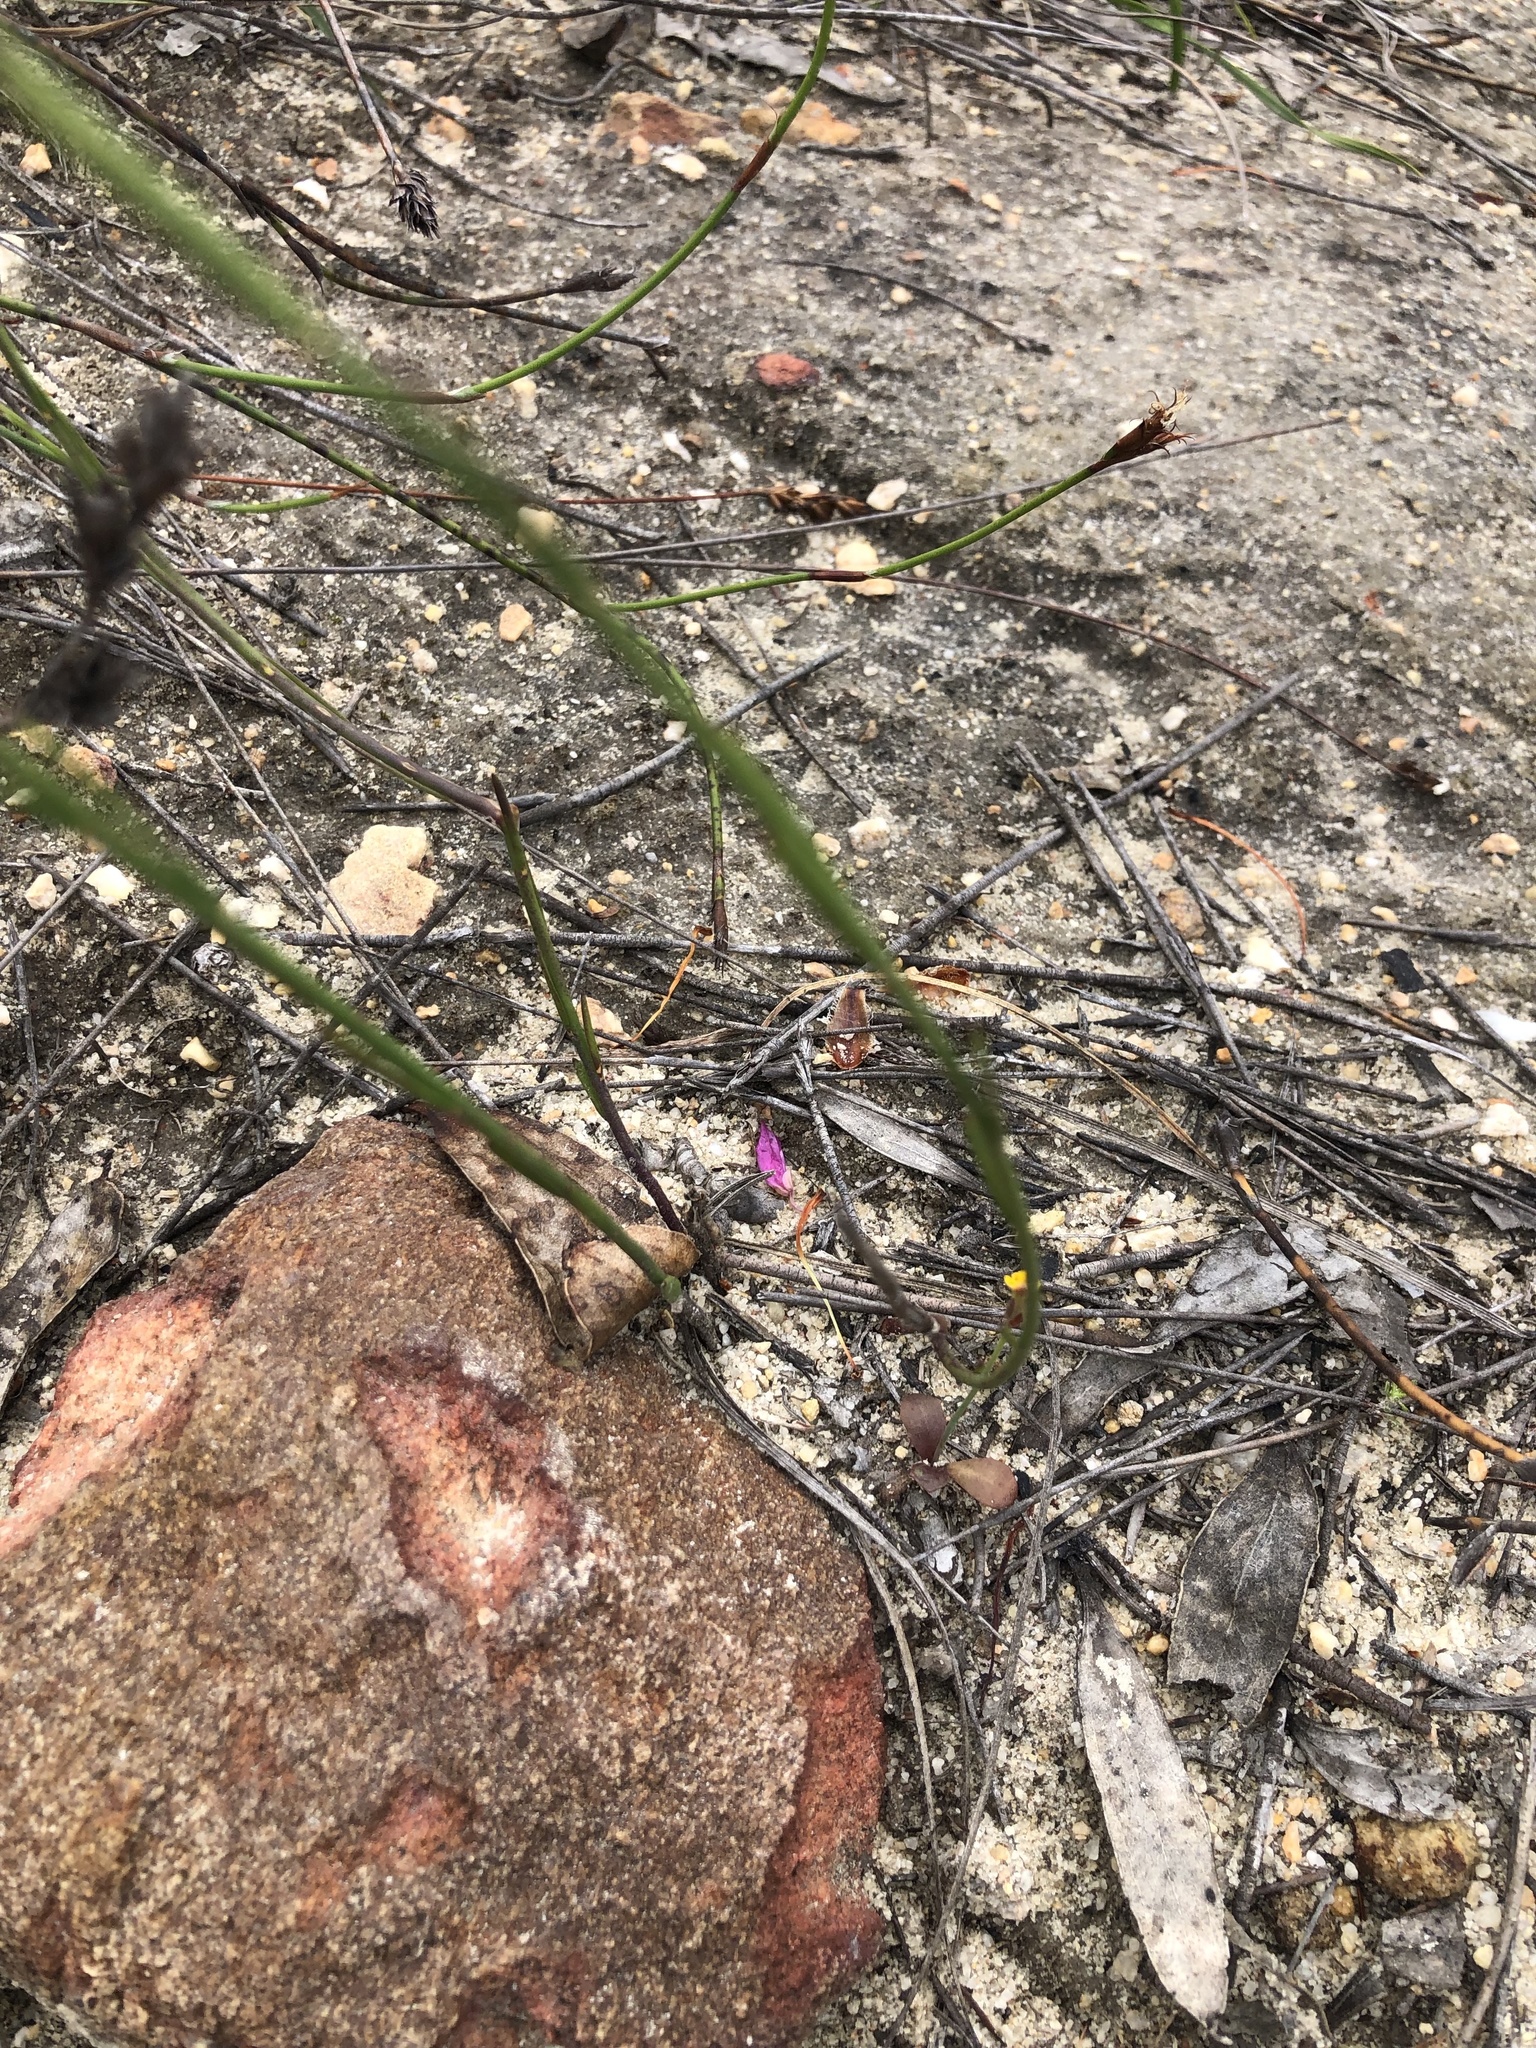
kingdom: Plantae
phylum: Tracheophyta
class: Magnoliopsida
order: Fabales
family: Polygalaceae
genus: Polygala
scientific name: Polygala garcini
